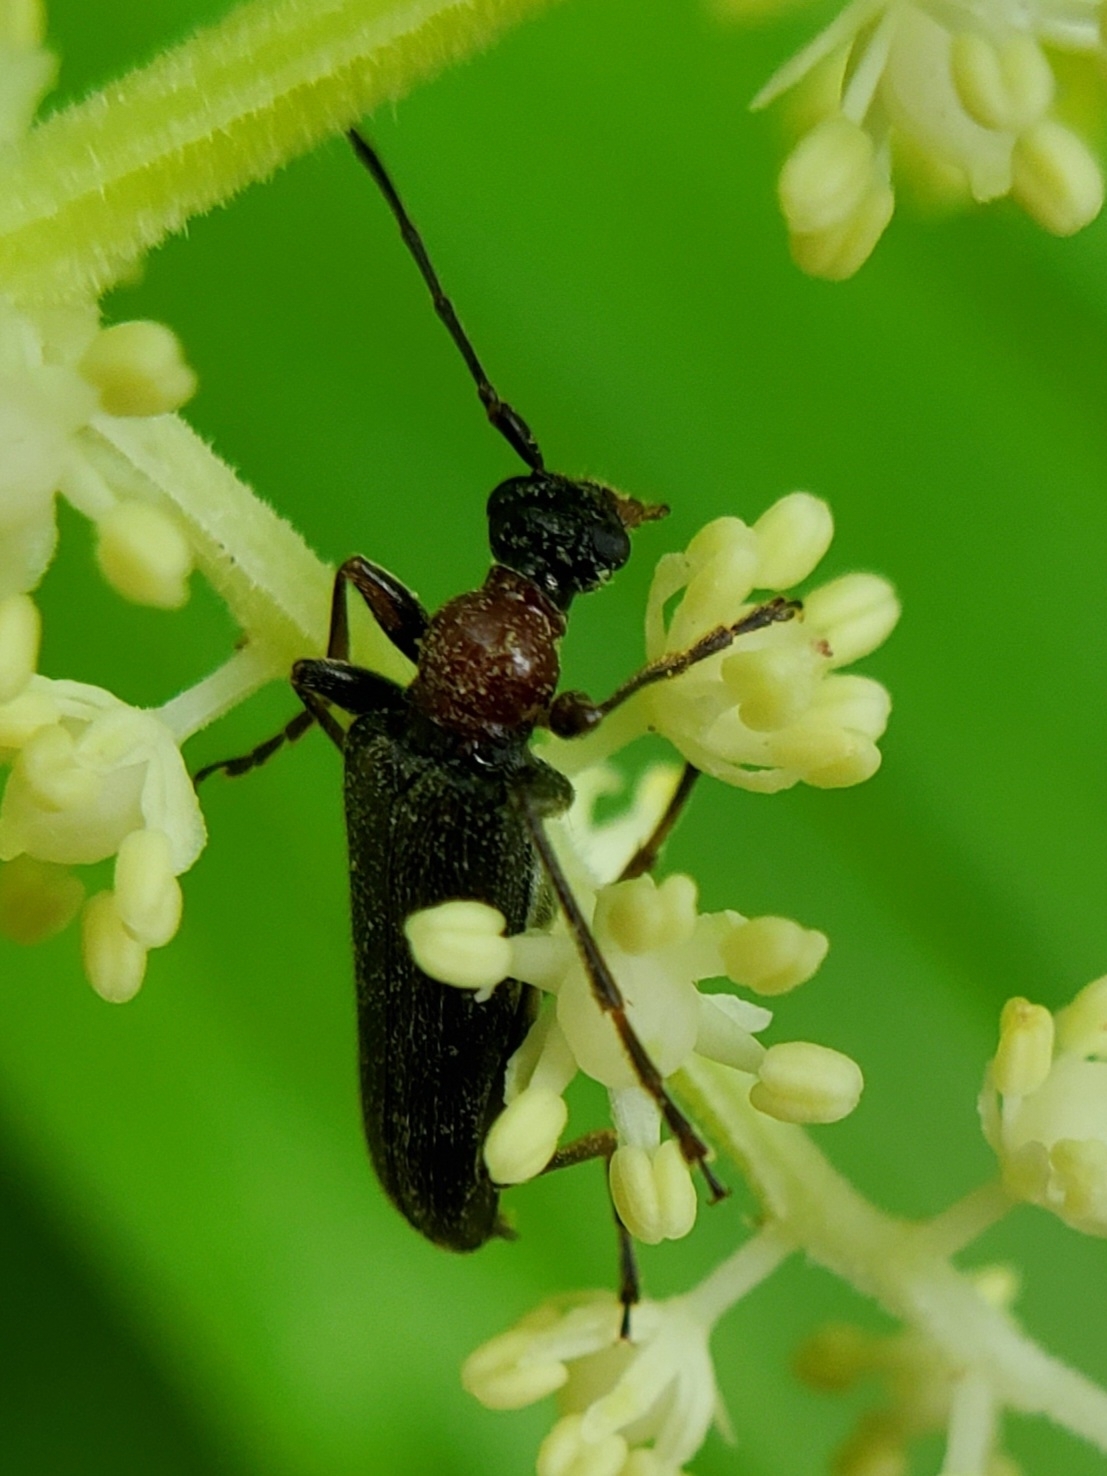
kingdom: Animalia
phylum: Arthropoda
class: Insecta
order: Coleoptera
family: Cerambycidae
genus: Pidonia
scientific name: Pidonia ruficollis
